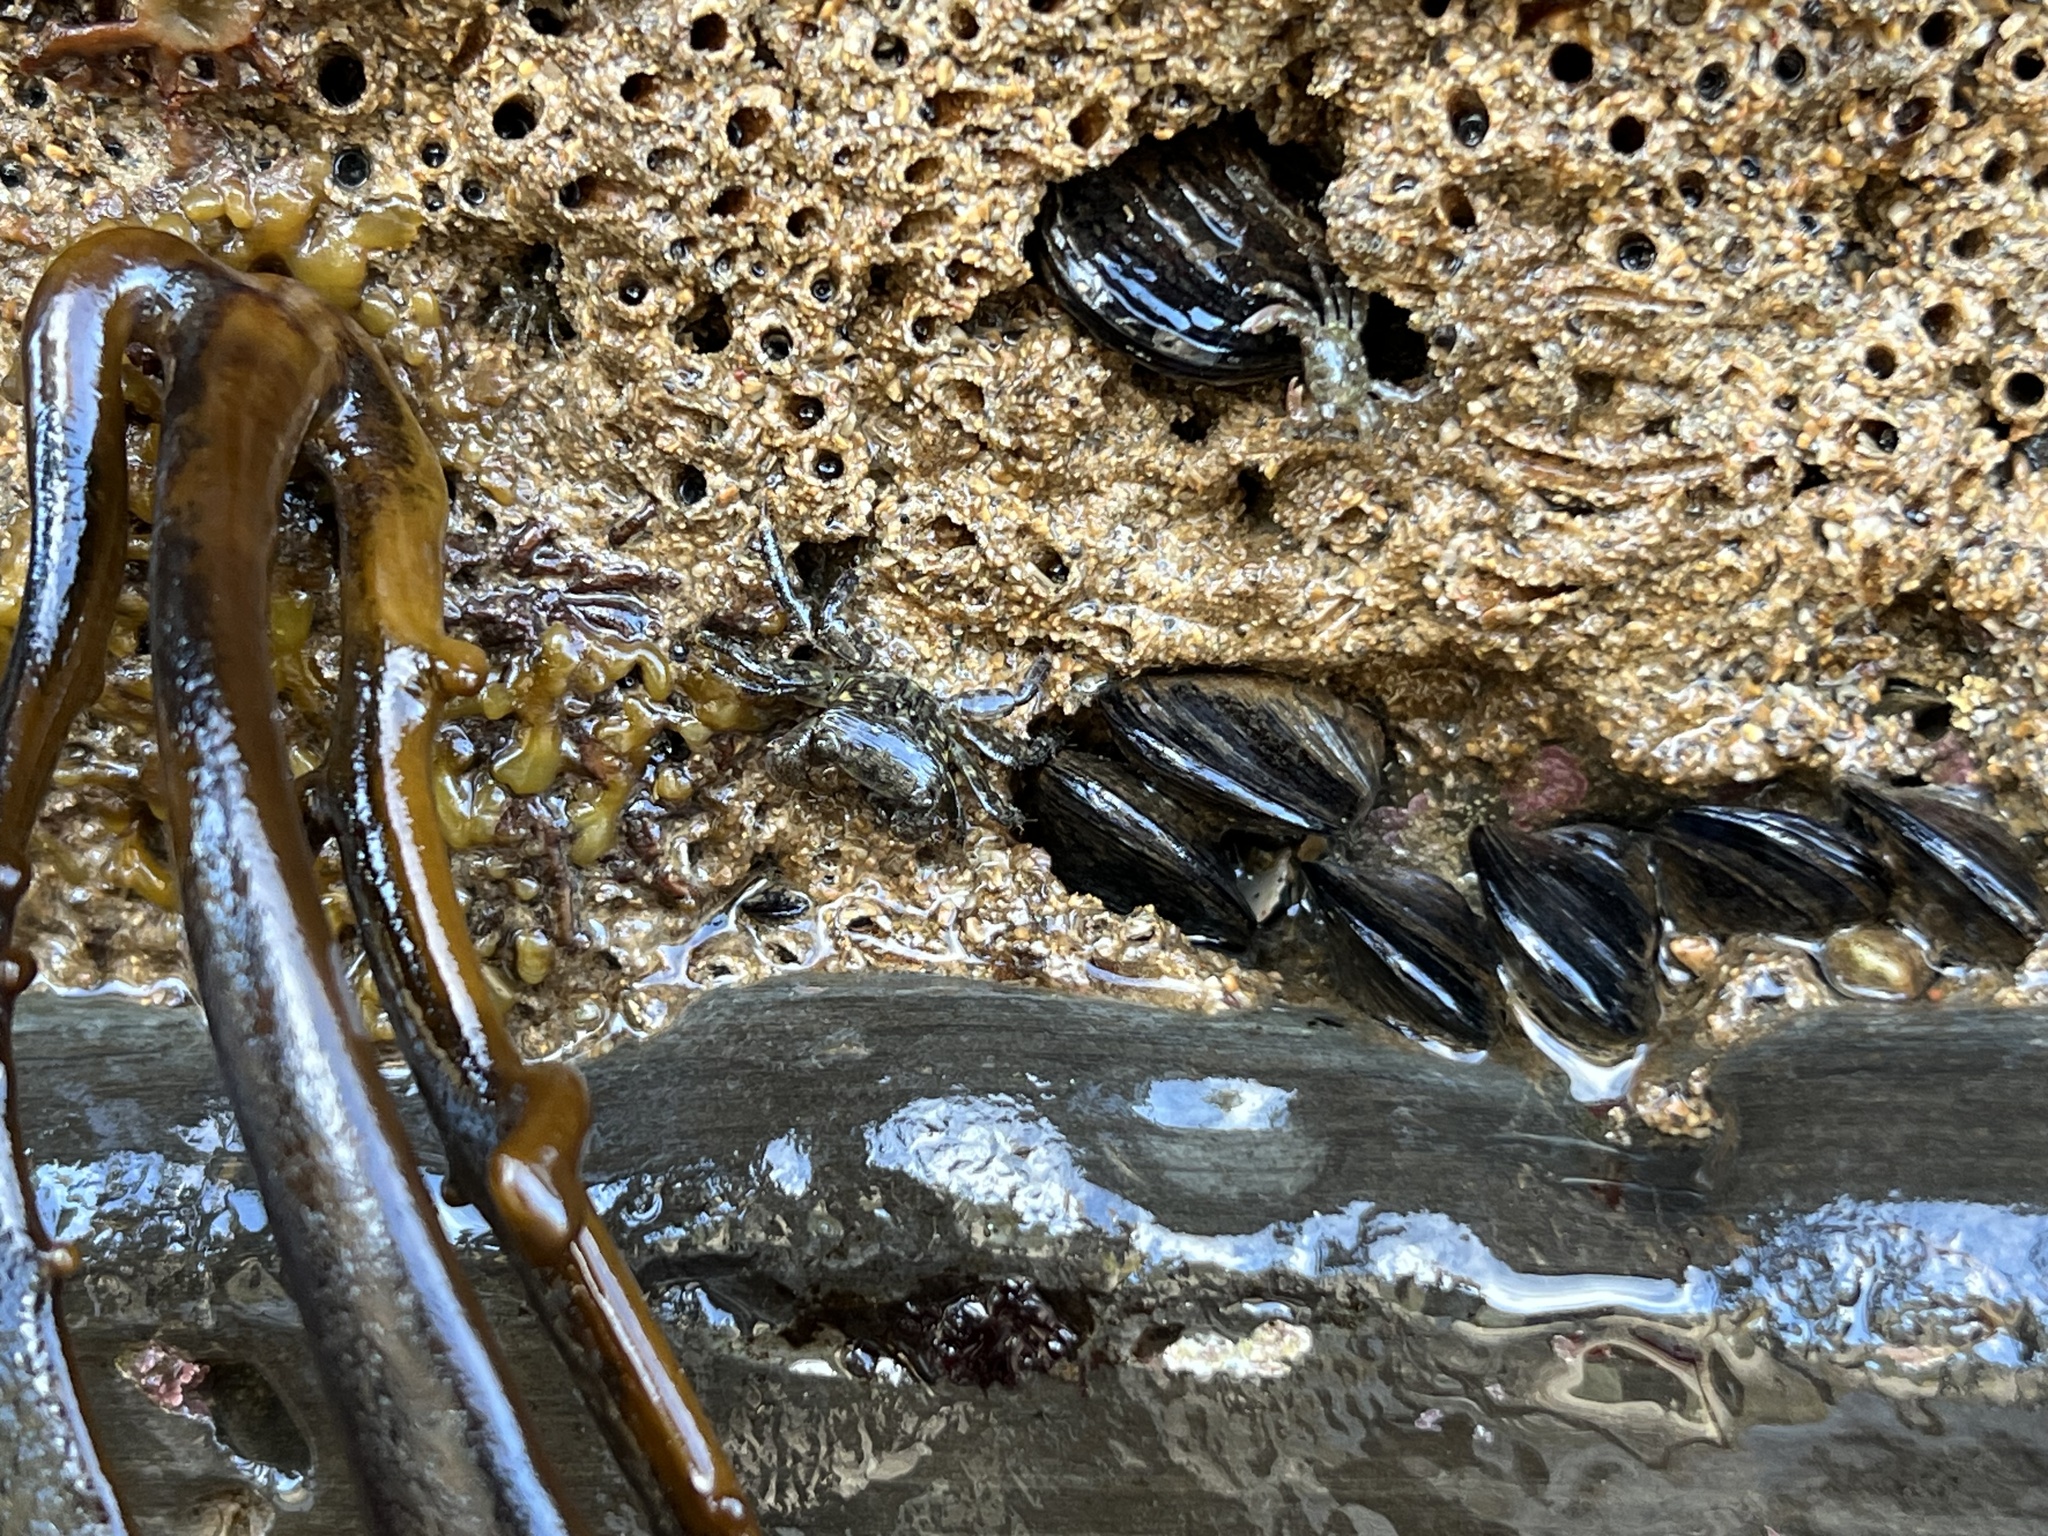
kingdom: Animalia
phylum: Arthropoda
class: Malacostraca
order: Decapoda
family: Grapsidae
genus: Pachygrapsus
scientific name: Pachygrapsus crassipes
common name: Striped shore crab
